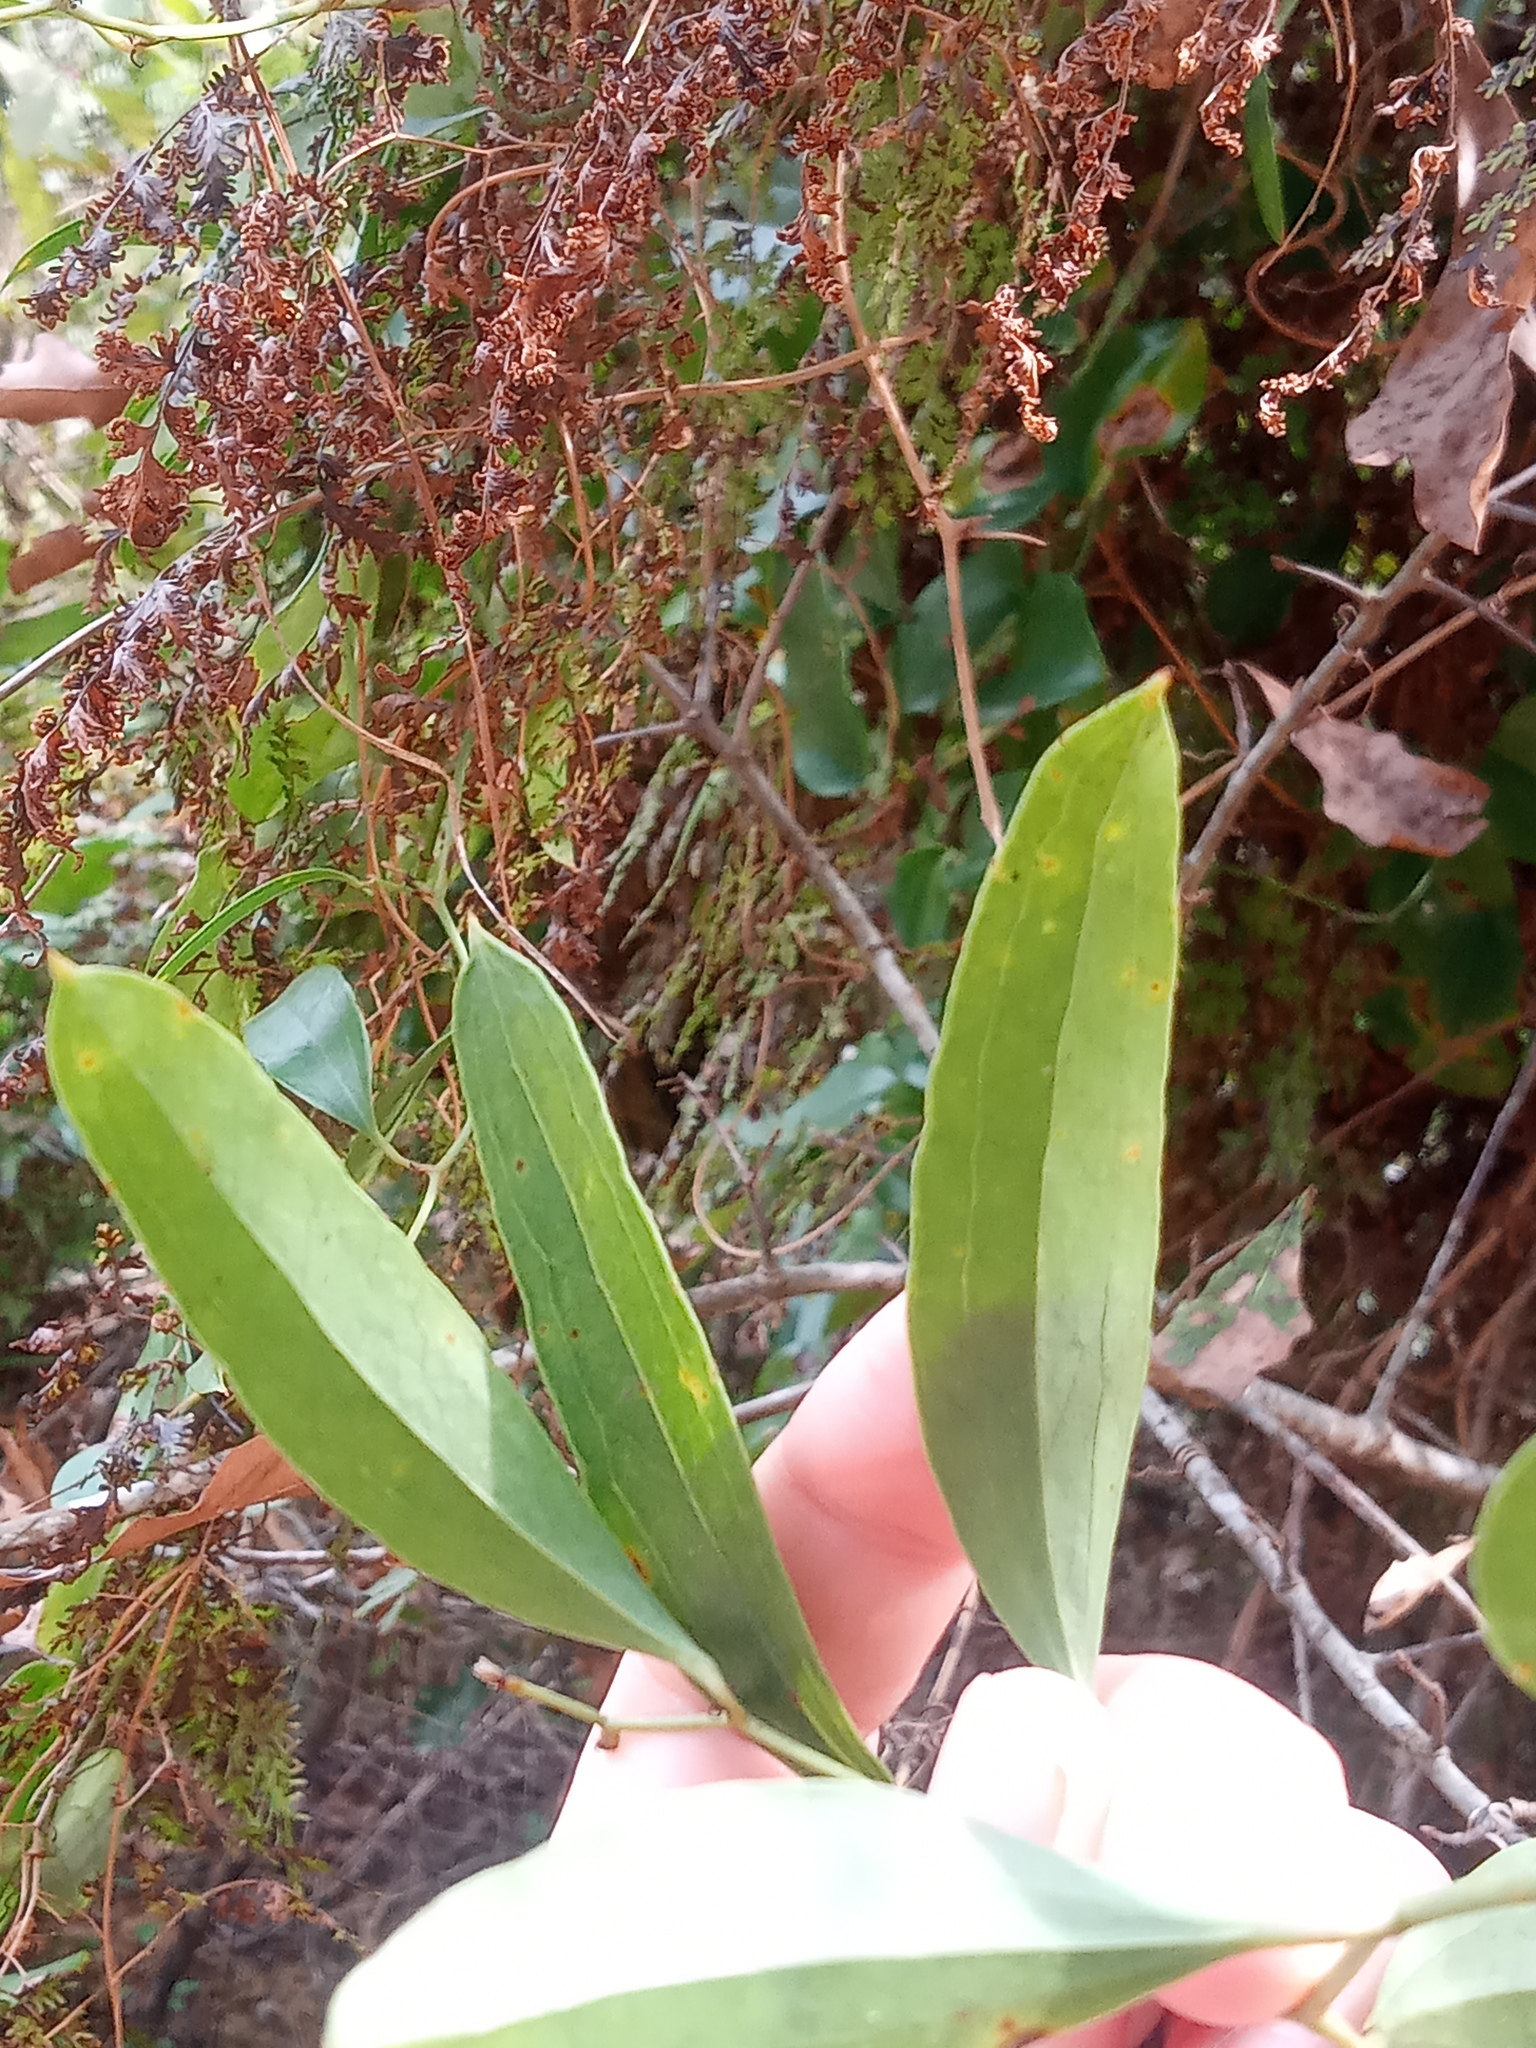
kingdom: Plantae
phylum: Tracheophyta
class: Liliopsida
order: Liliales
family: Smilacaceae
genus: Smilax
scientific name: Smilax auriculata
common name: Wild bamboo
